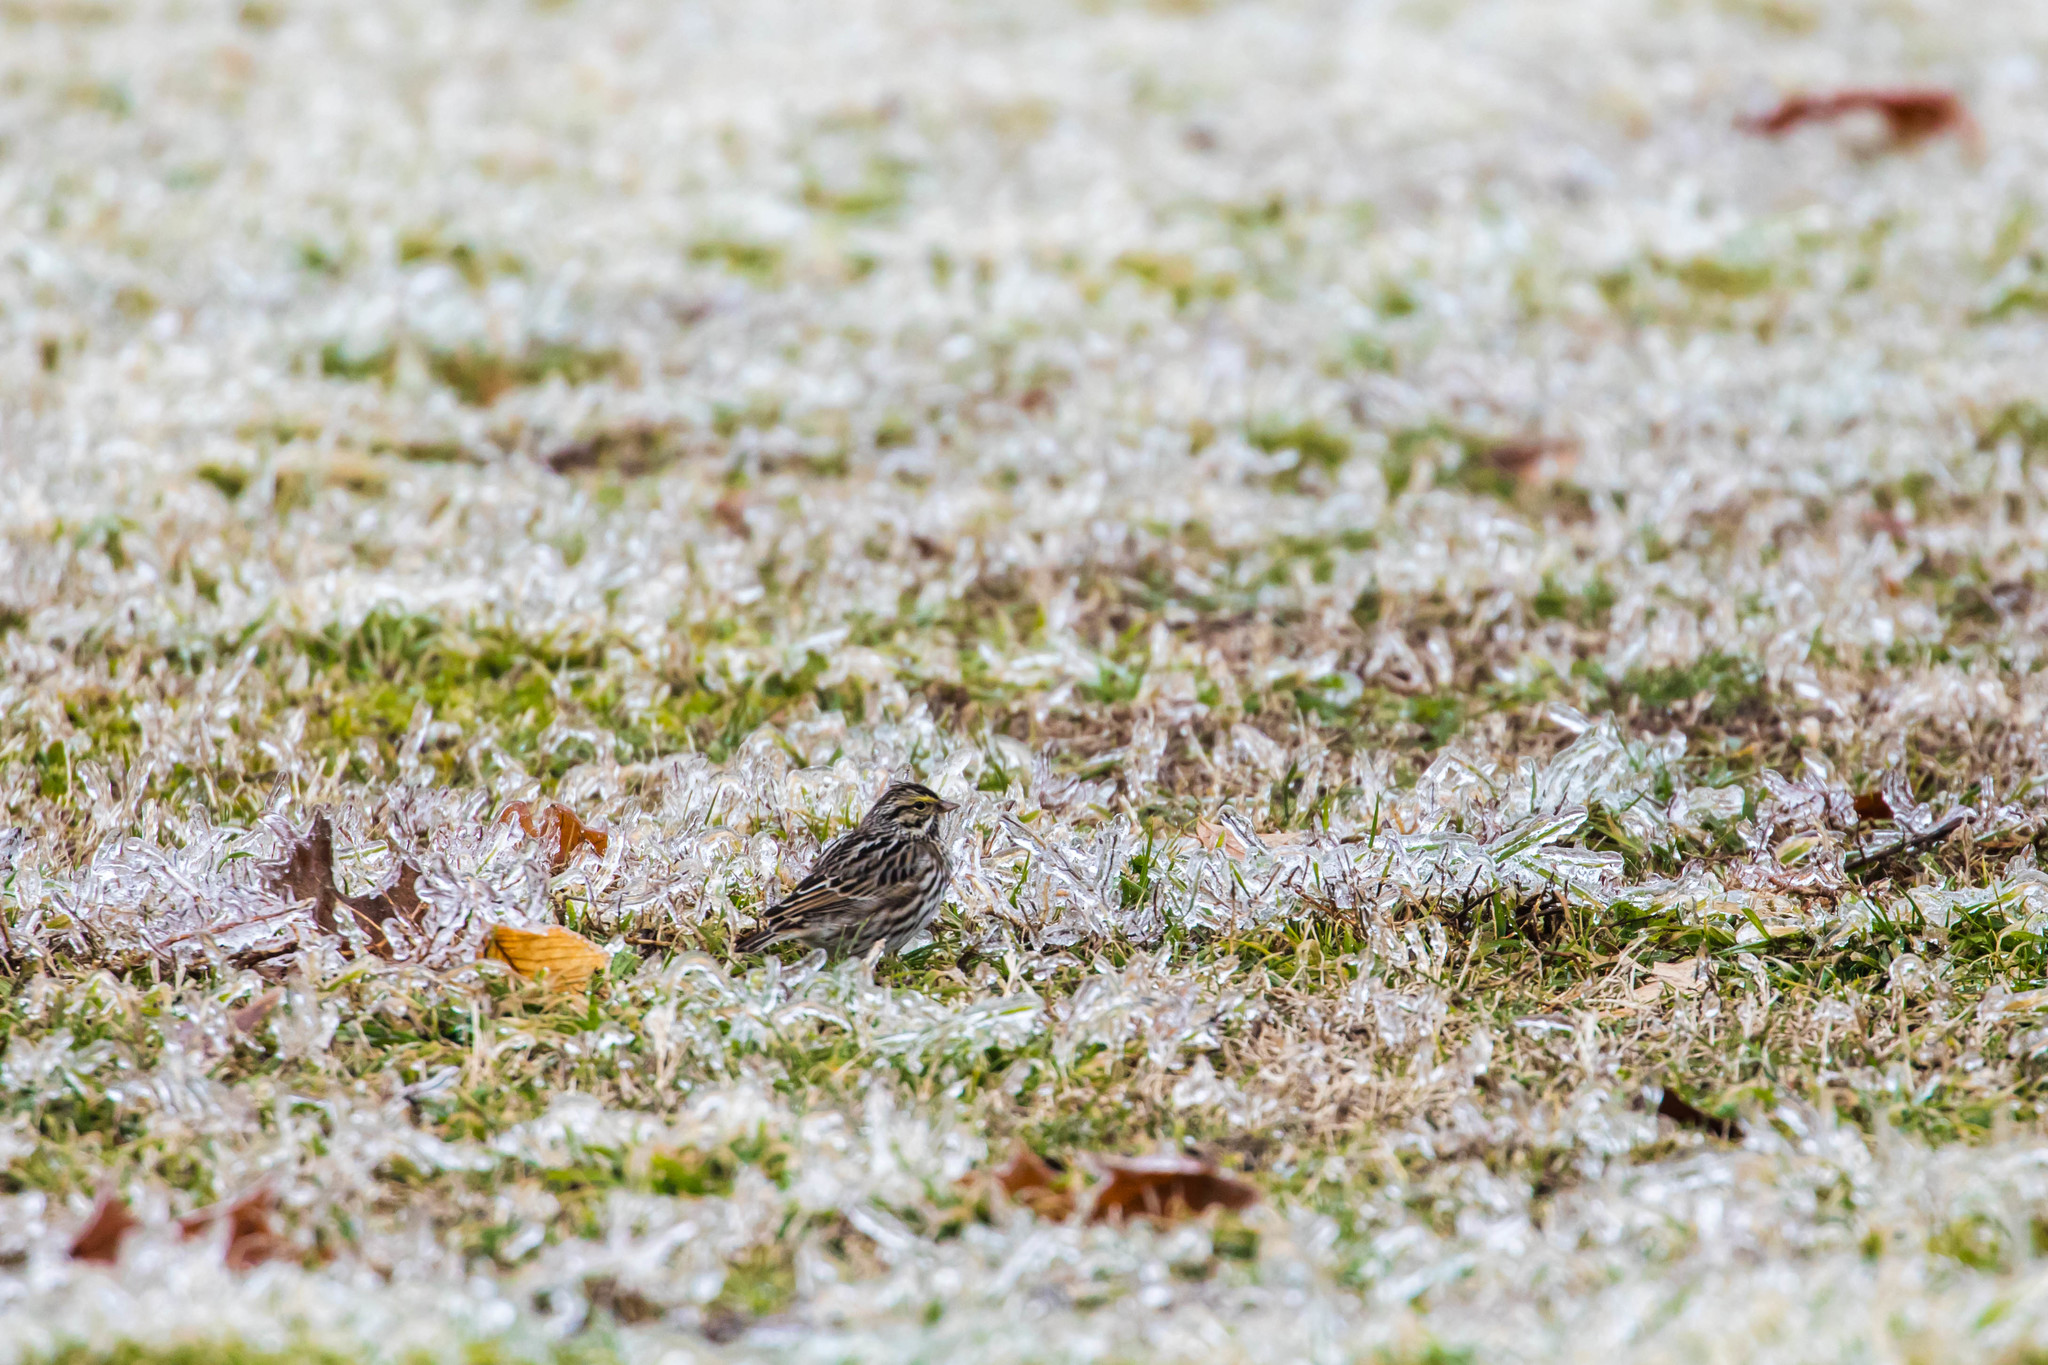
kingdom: Animalia
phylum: Chordata
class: Aves
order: Passeriformes
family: Passerellidae
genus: Passerculus
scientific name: Passerculus sandwichensis
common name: Savannah sparrow
